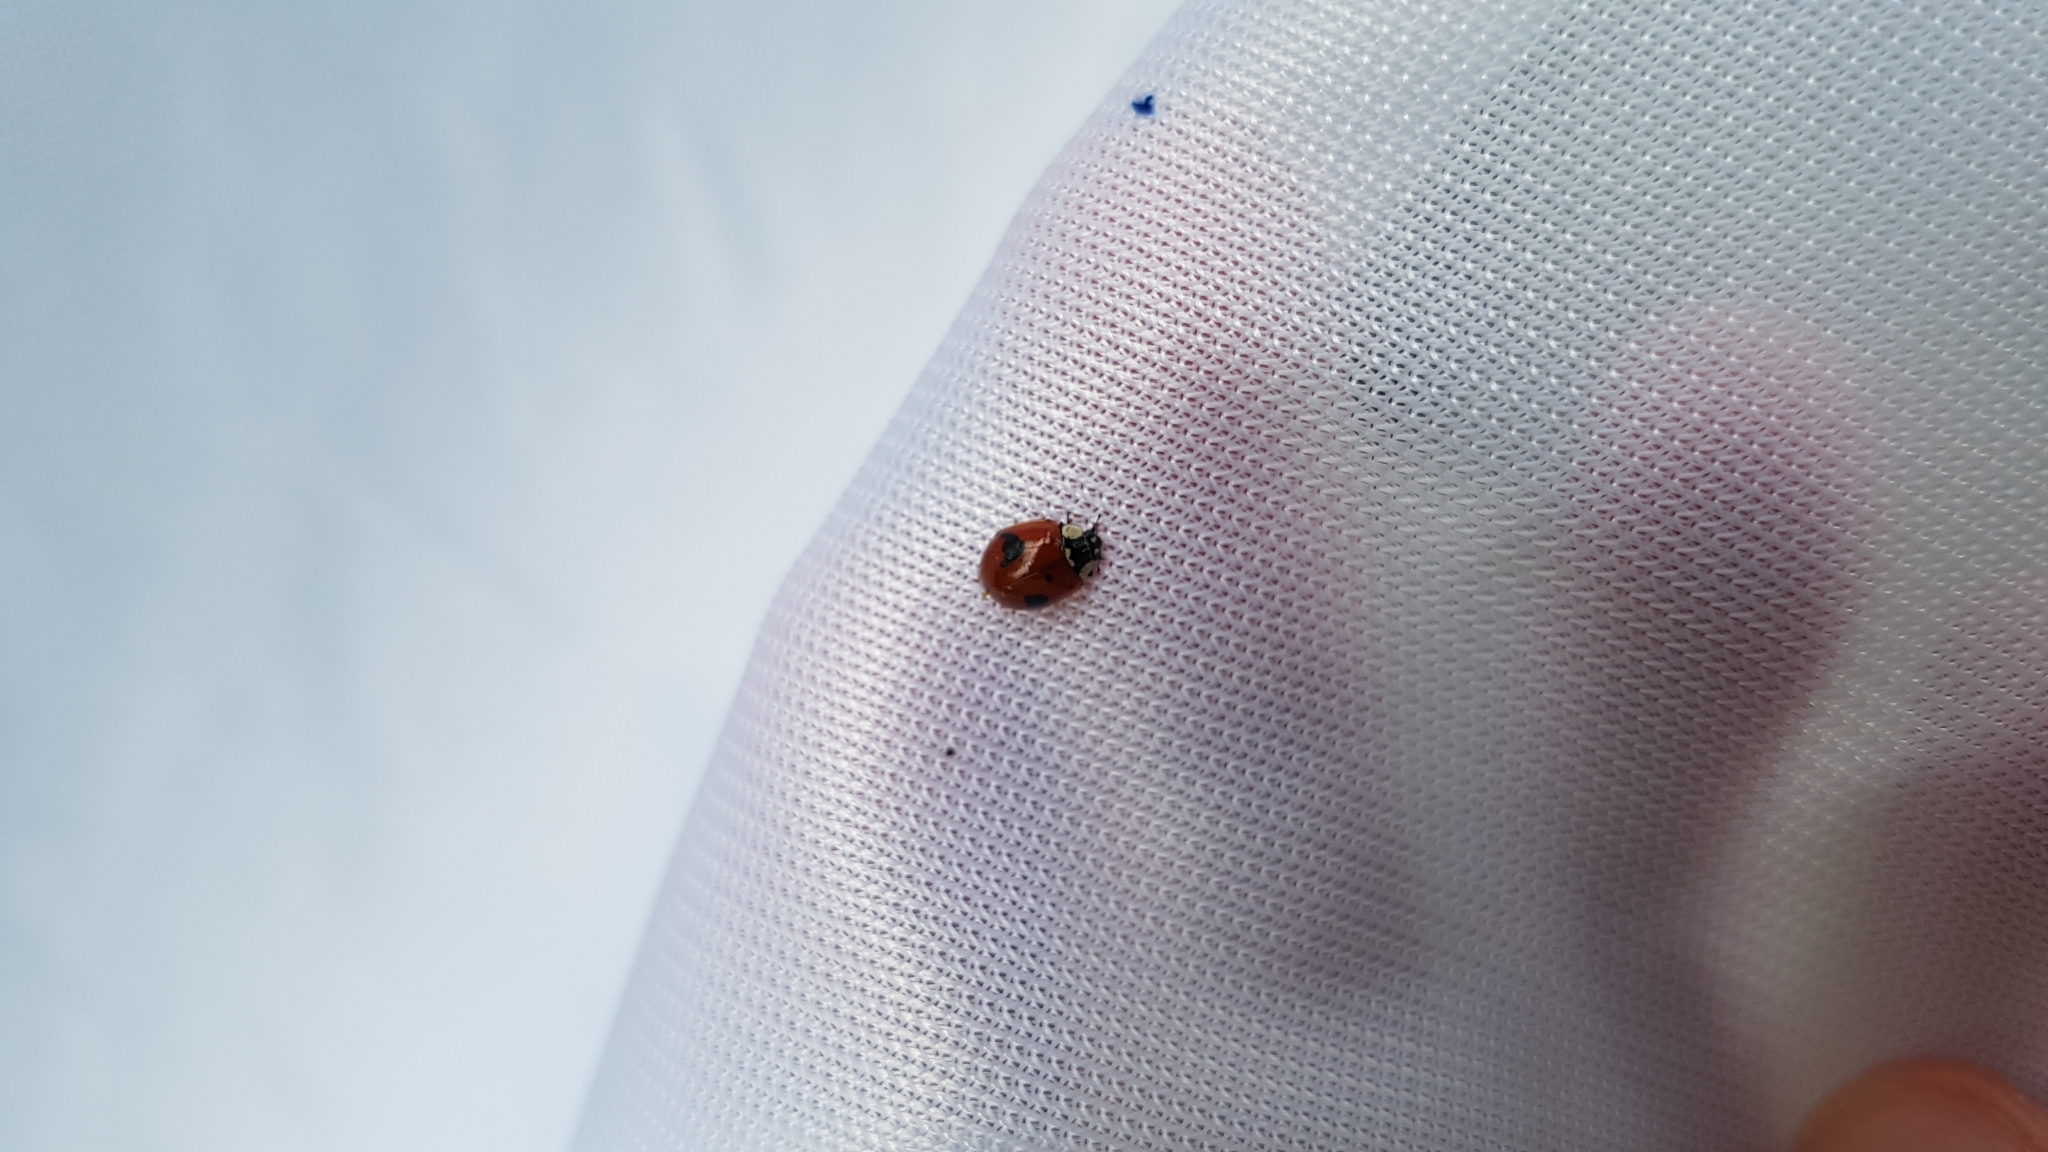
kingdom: Animalia
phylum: Arthropoda
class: Insecta
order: Coleoptera
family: Coccinellidae
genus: Adalia
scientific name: Adalia bipunctata
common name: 2-spot ladybird
